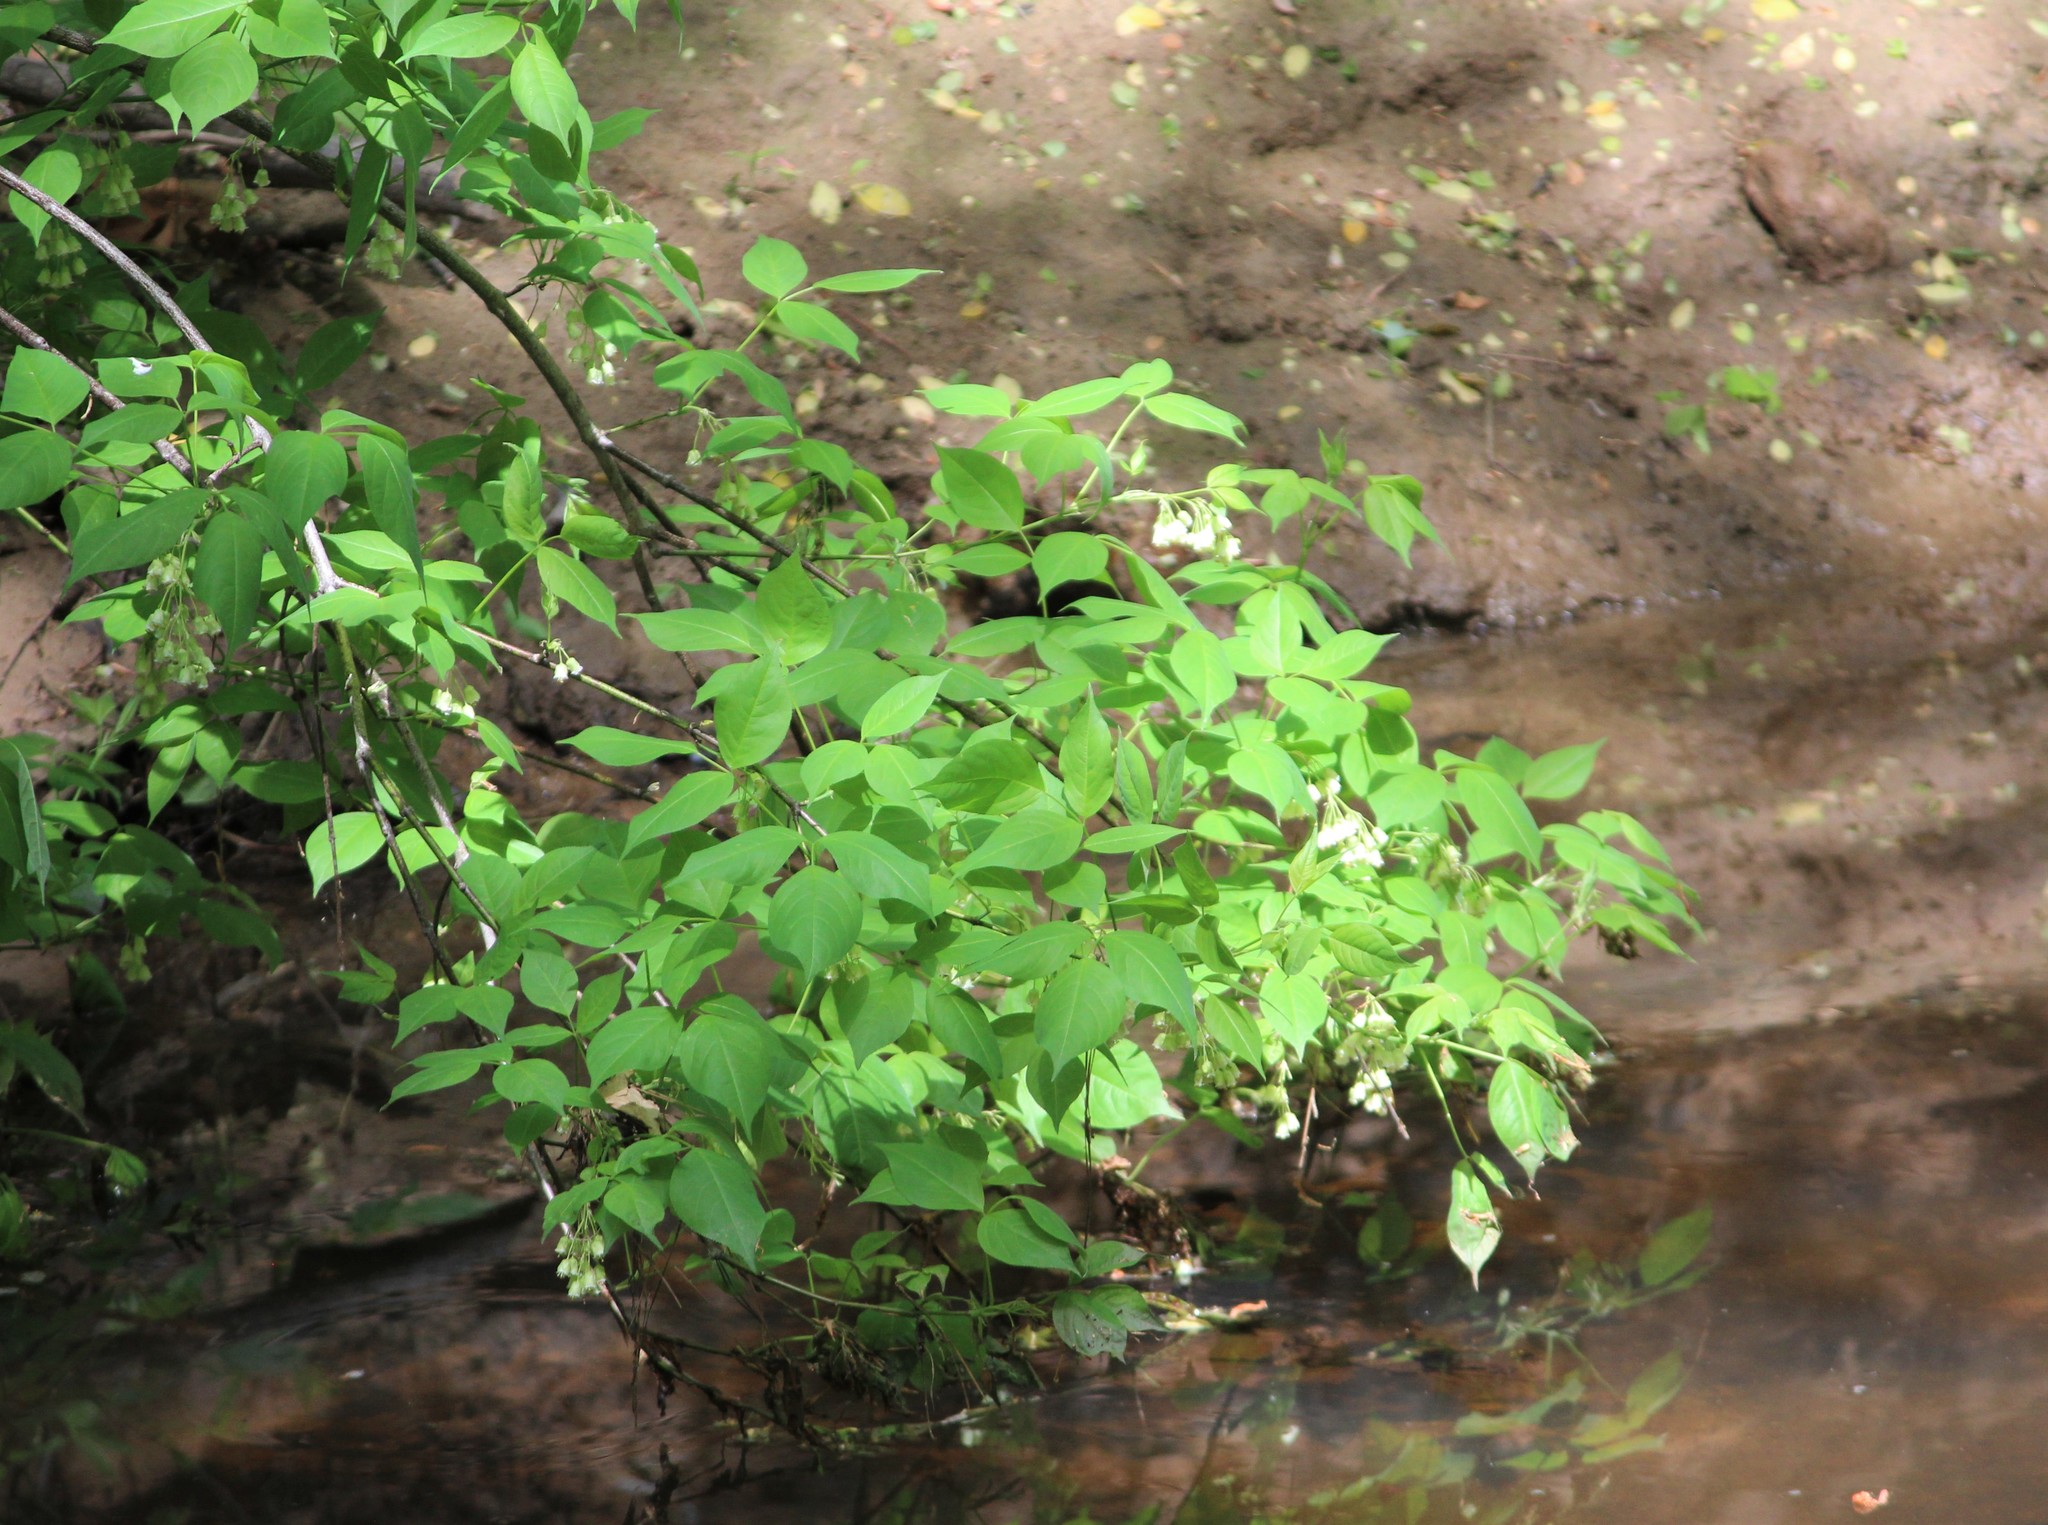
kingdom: Plantae
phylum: Tracheophyta
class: Magnoliopsida
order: Crossosomatales
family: Staphyleaceae
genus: Staphylea
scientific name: Staphylea trifolia
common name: American bladdernut
